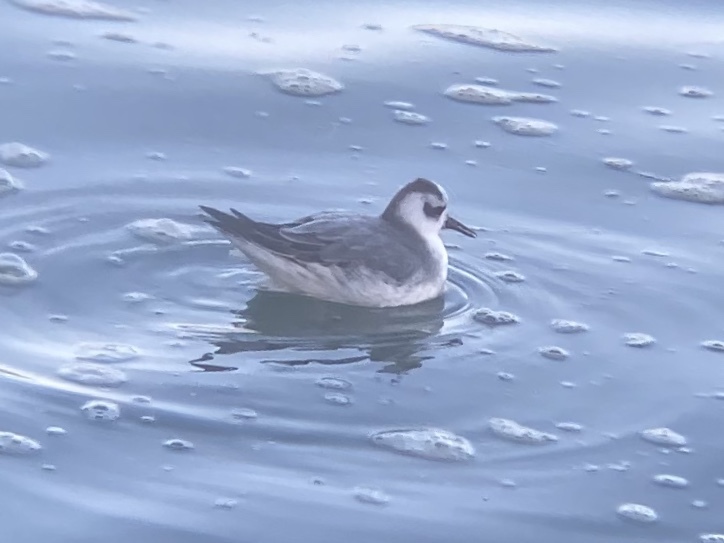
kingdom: Animalia
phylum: Chordata
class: Aves
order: Charadriiformes
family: Scolopacidae
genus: Phalaropus
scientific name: Phalaropus fulicarius
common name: Red phalarope
